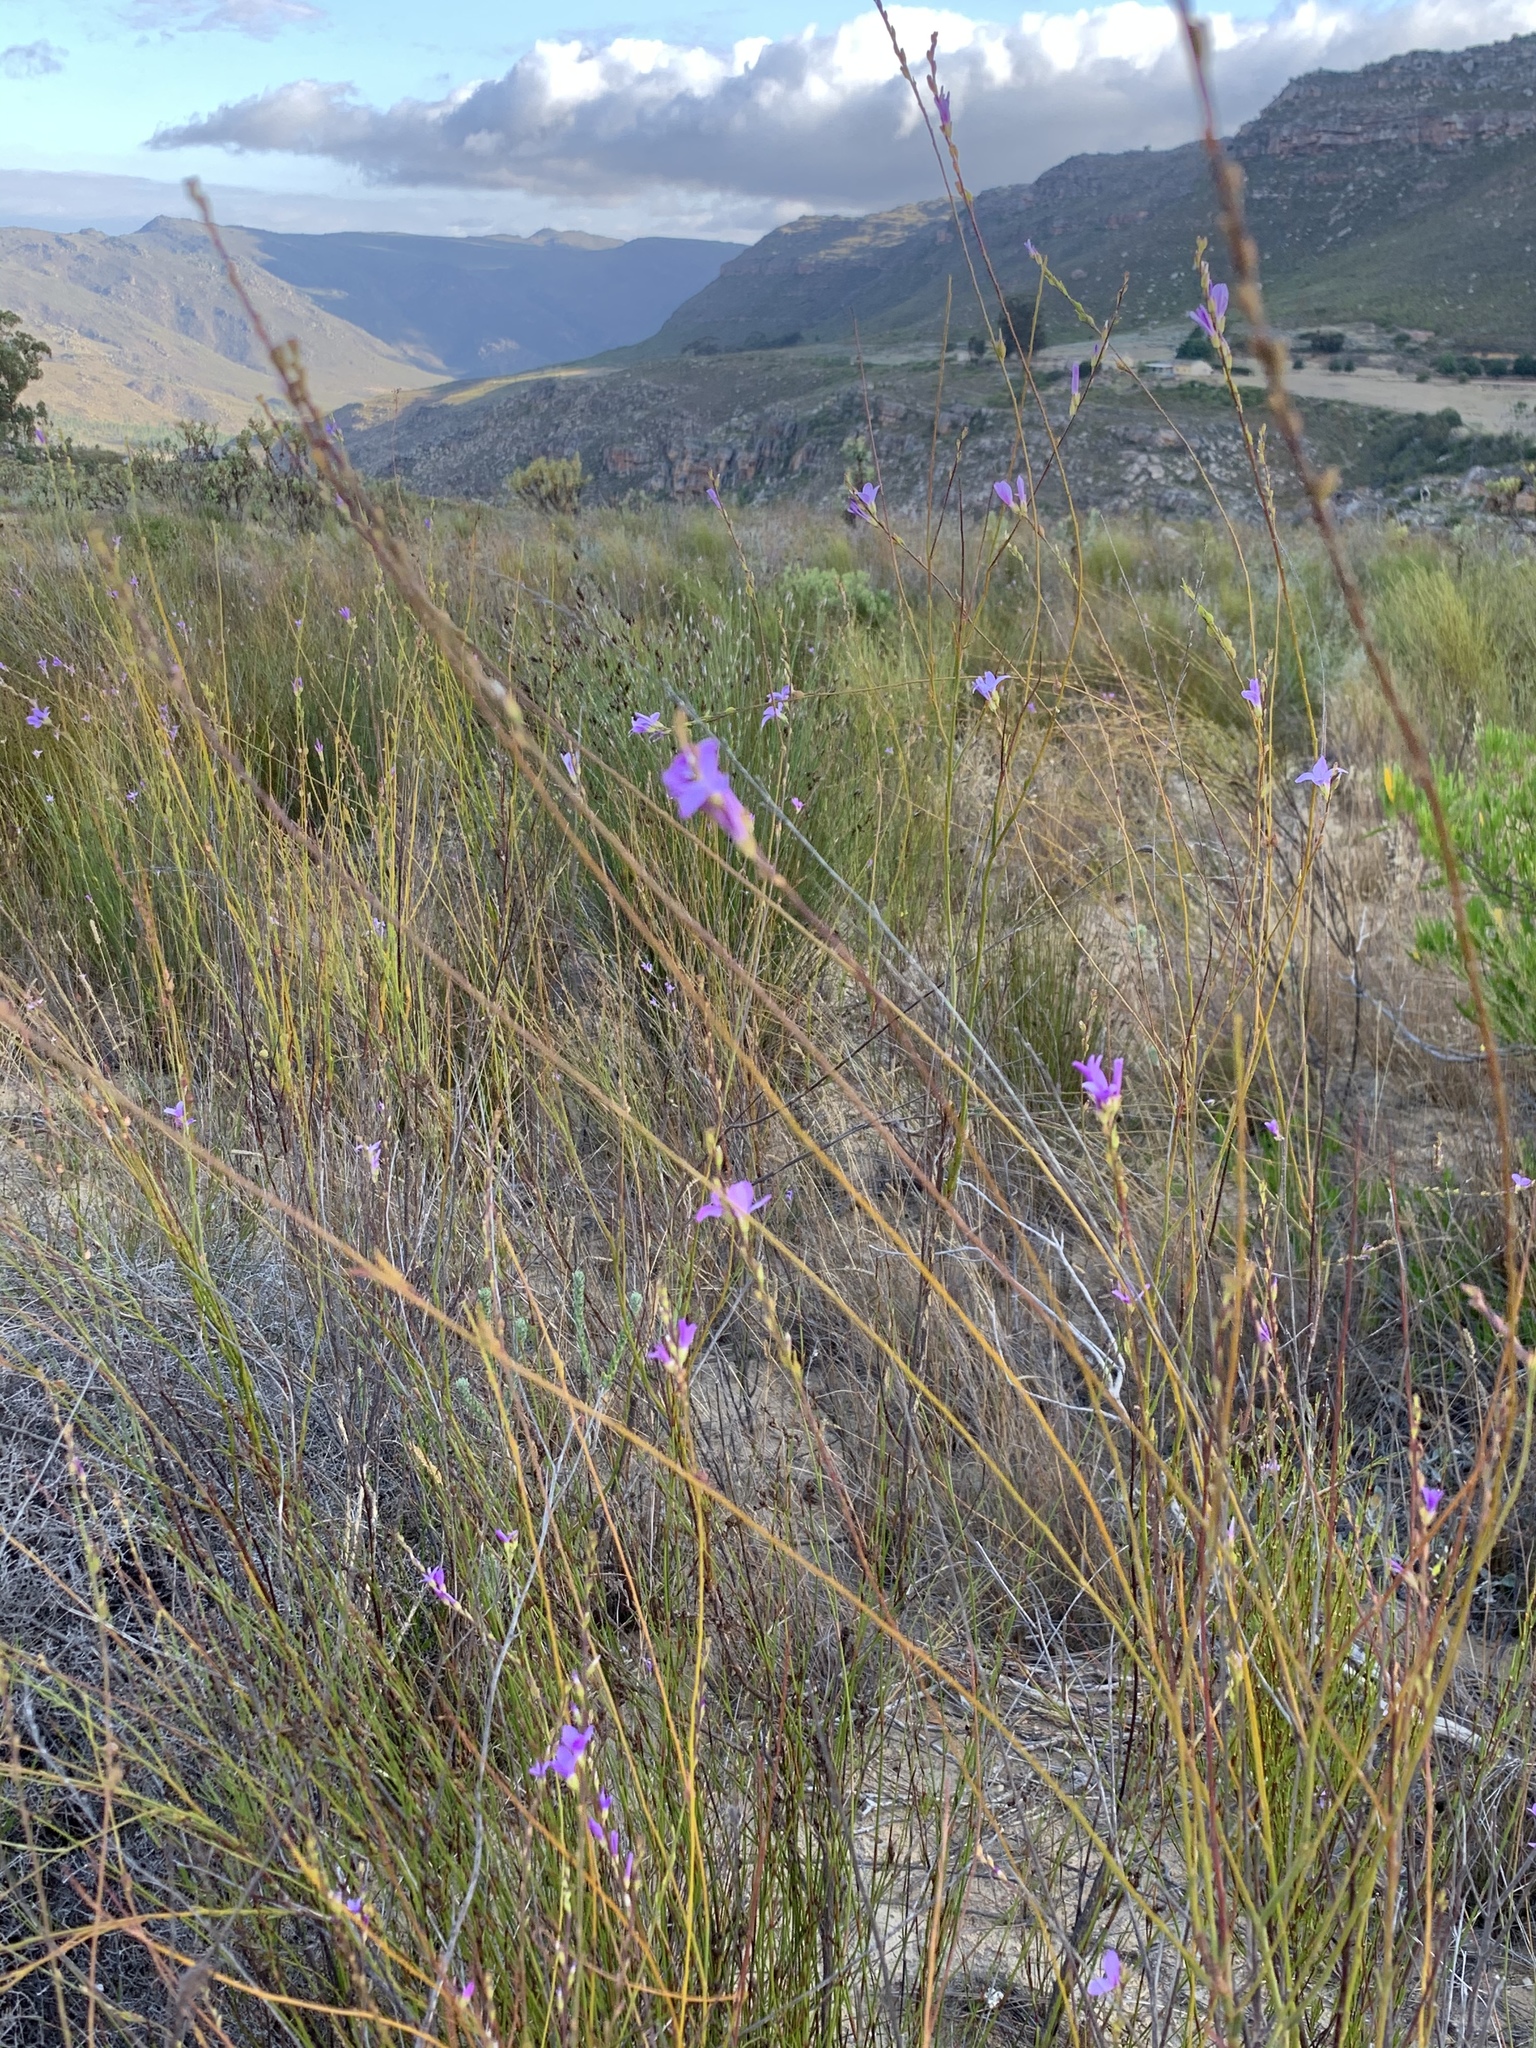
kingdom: Plantae
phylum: Tracheophyta
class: Magnoliopsida
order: Brassicales
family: Brassicaceae
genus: Heliophila
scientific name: Heliophila maraisiana
